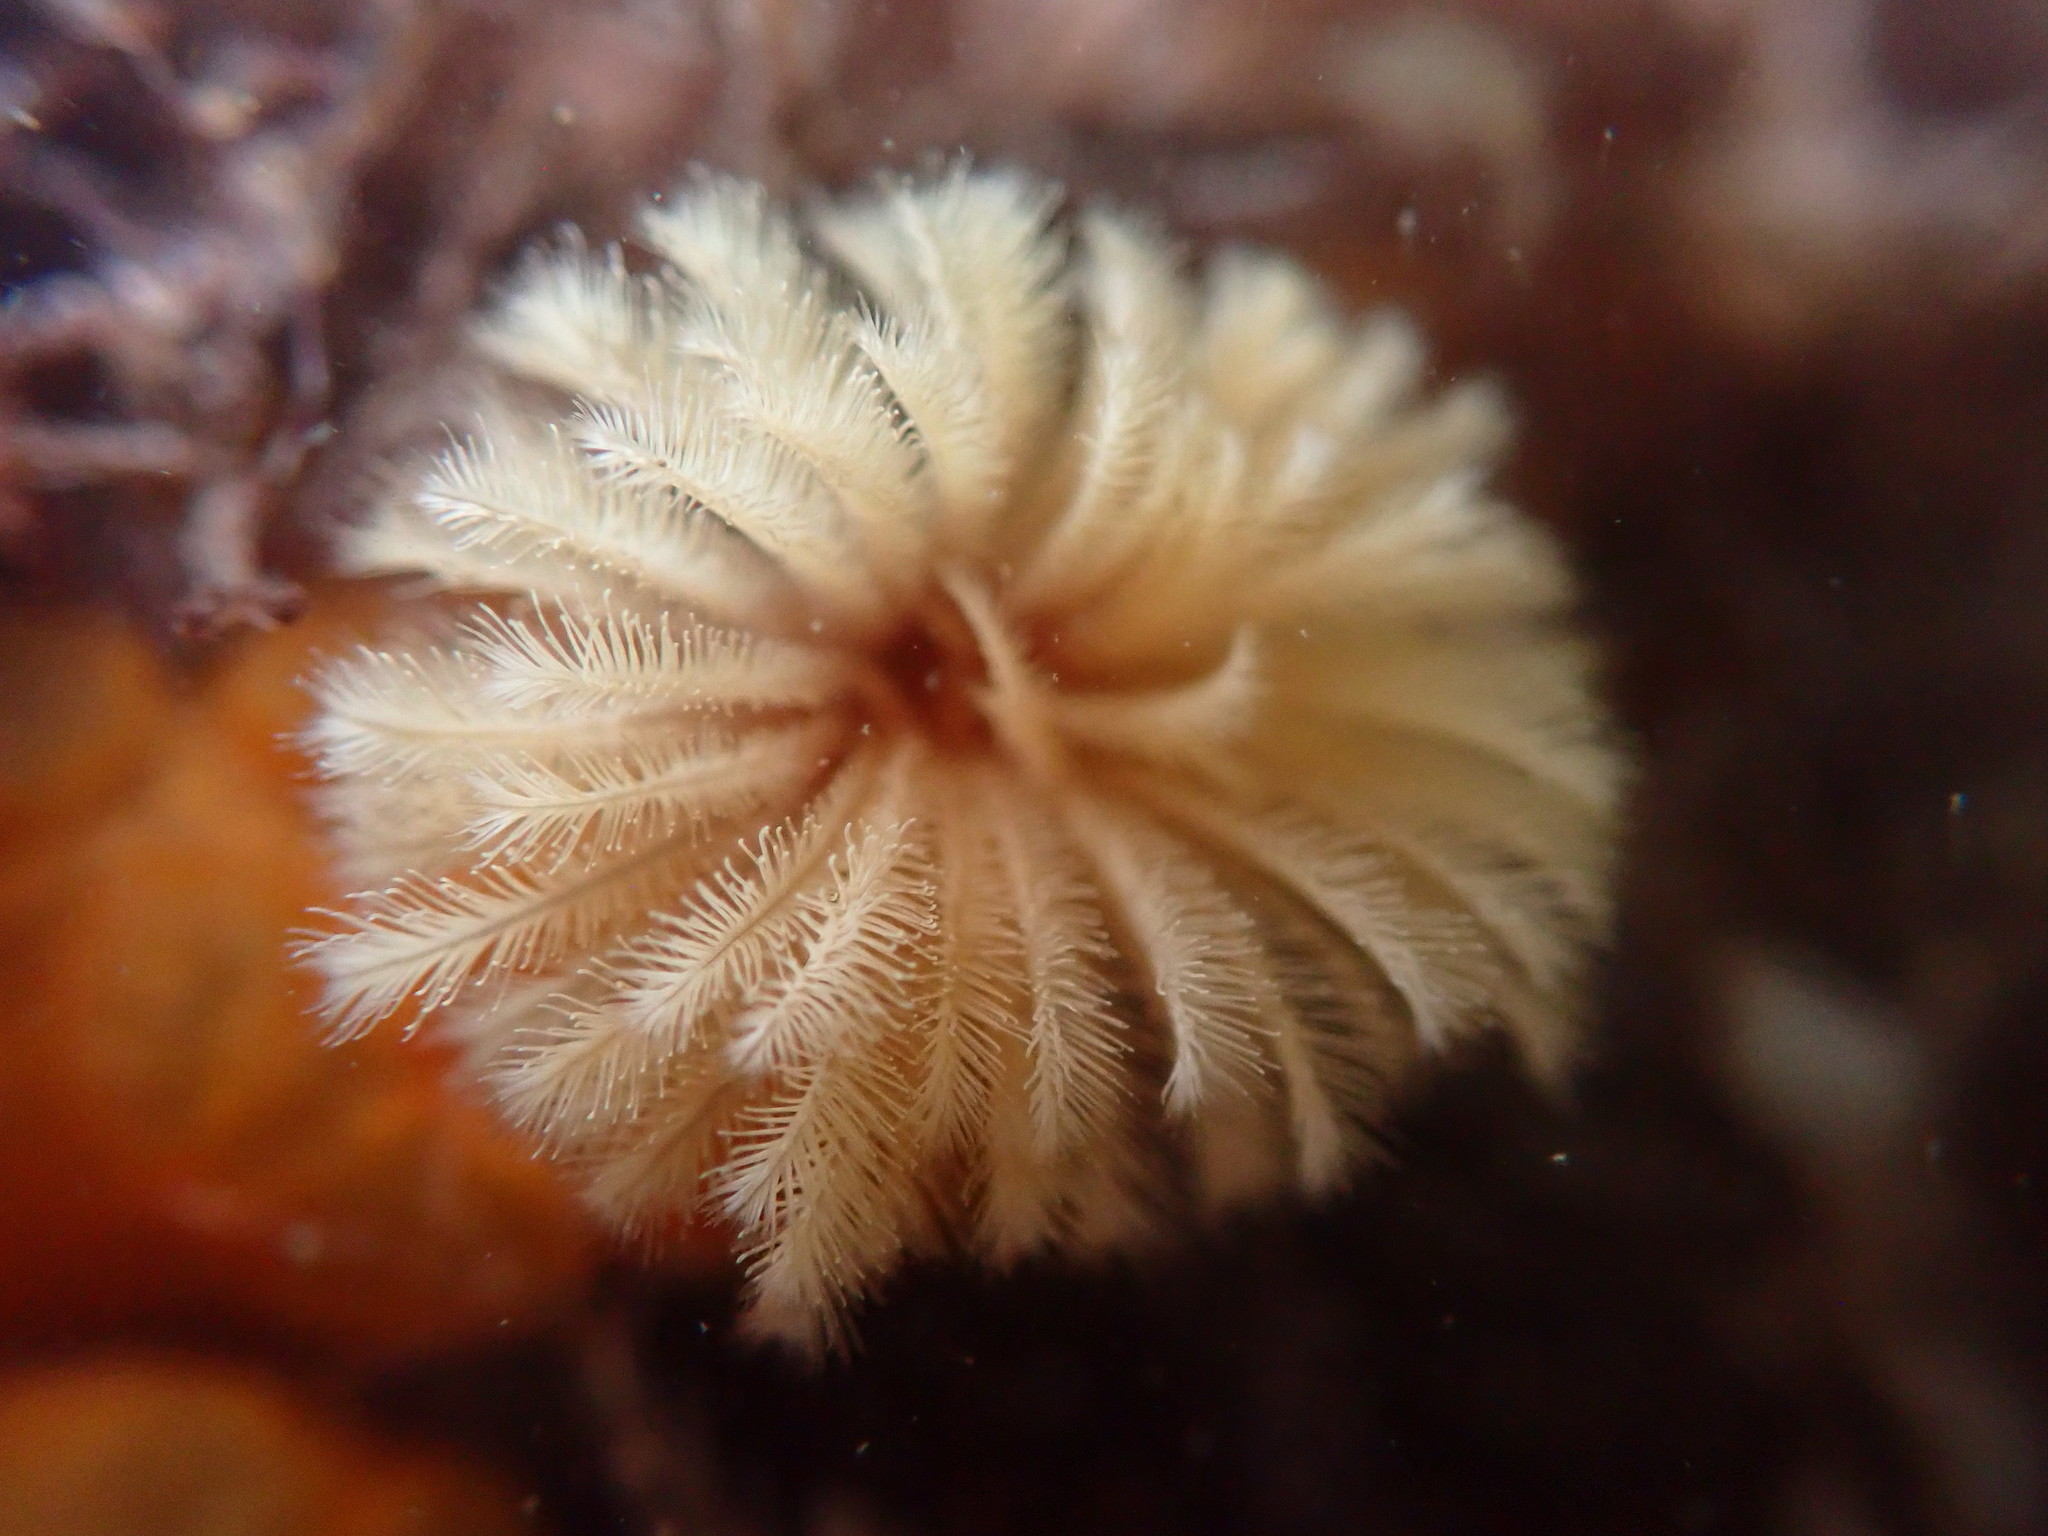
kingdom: Animalia
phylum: Annelida
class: Polychaeta
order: Sabellida
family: Sabellidae
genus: Eudistylia
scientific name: Eudistylia polymorpha
